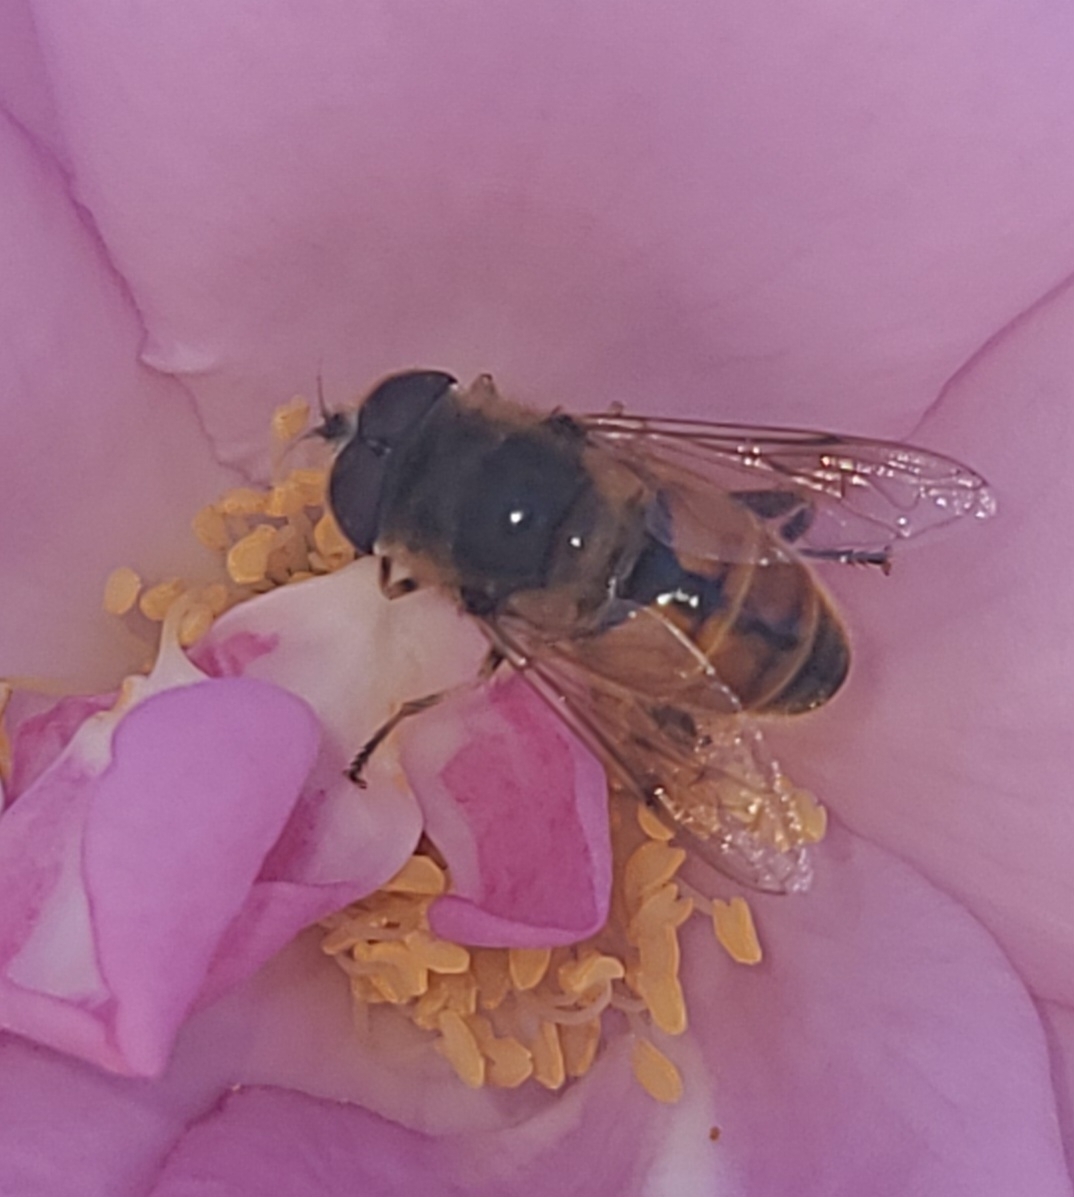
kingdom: Animalia
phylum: Arthropoda
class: Insecta
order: Diptera
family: Syrphidae
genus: Eristalis
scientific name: Eristalis tenax
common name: Drone fly
